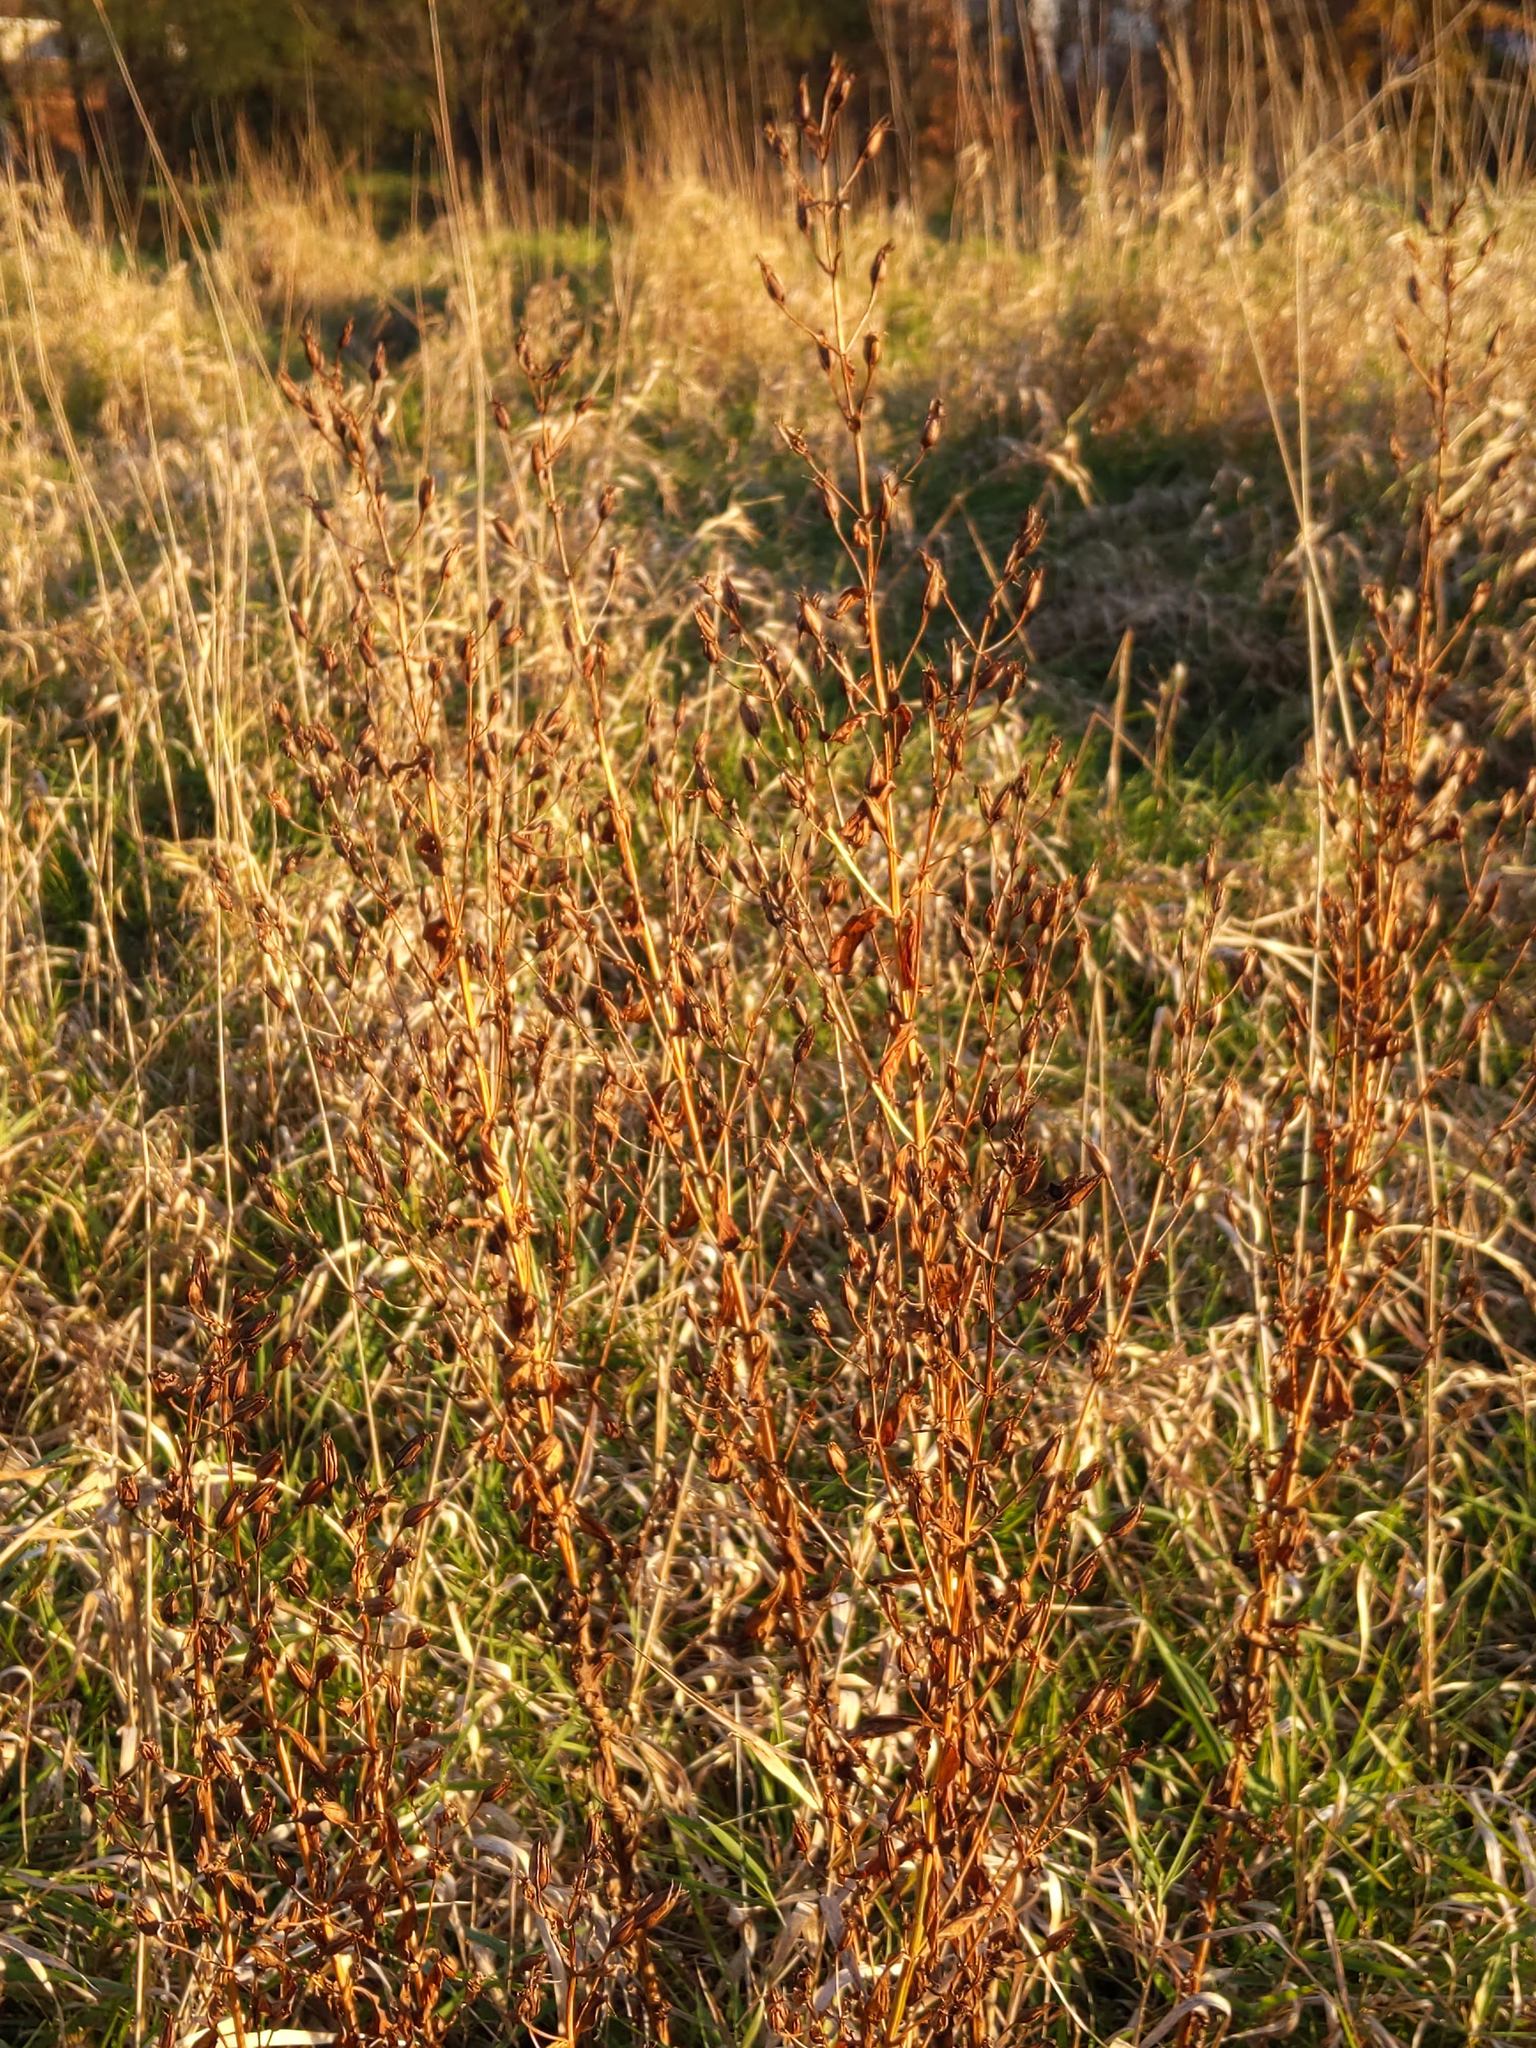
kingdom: Plantae
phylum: Tracheophyta
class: Magnoliopsida
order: Lamiales
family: Phrymaceae
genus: Mimulus
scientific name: Mimulus ringens
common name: Allegheny monkeyflower
